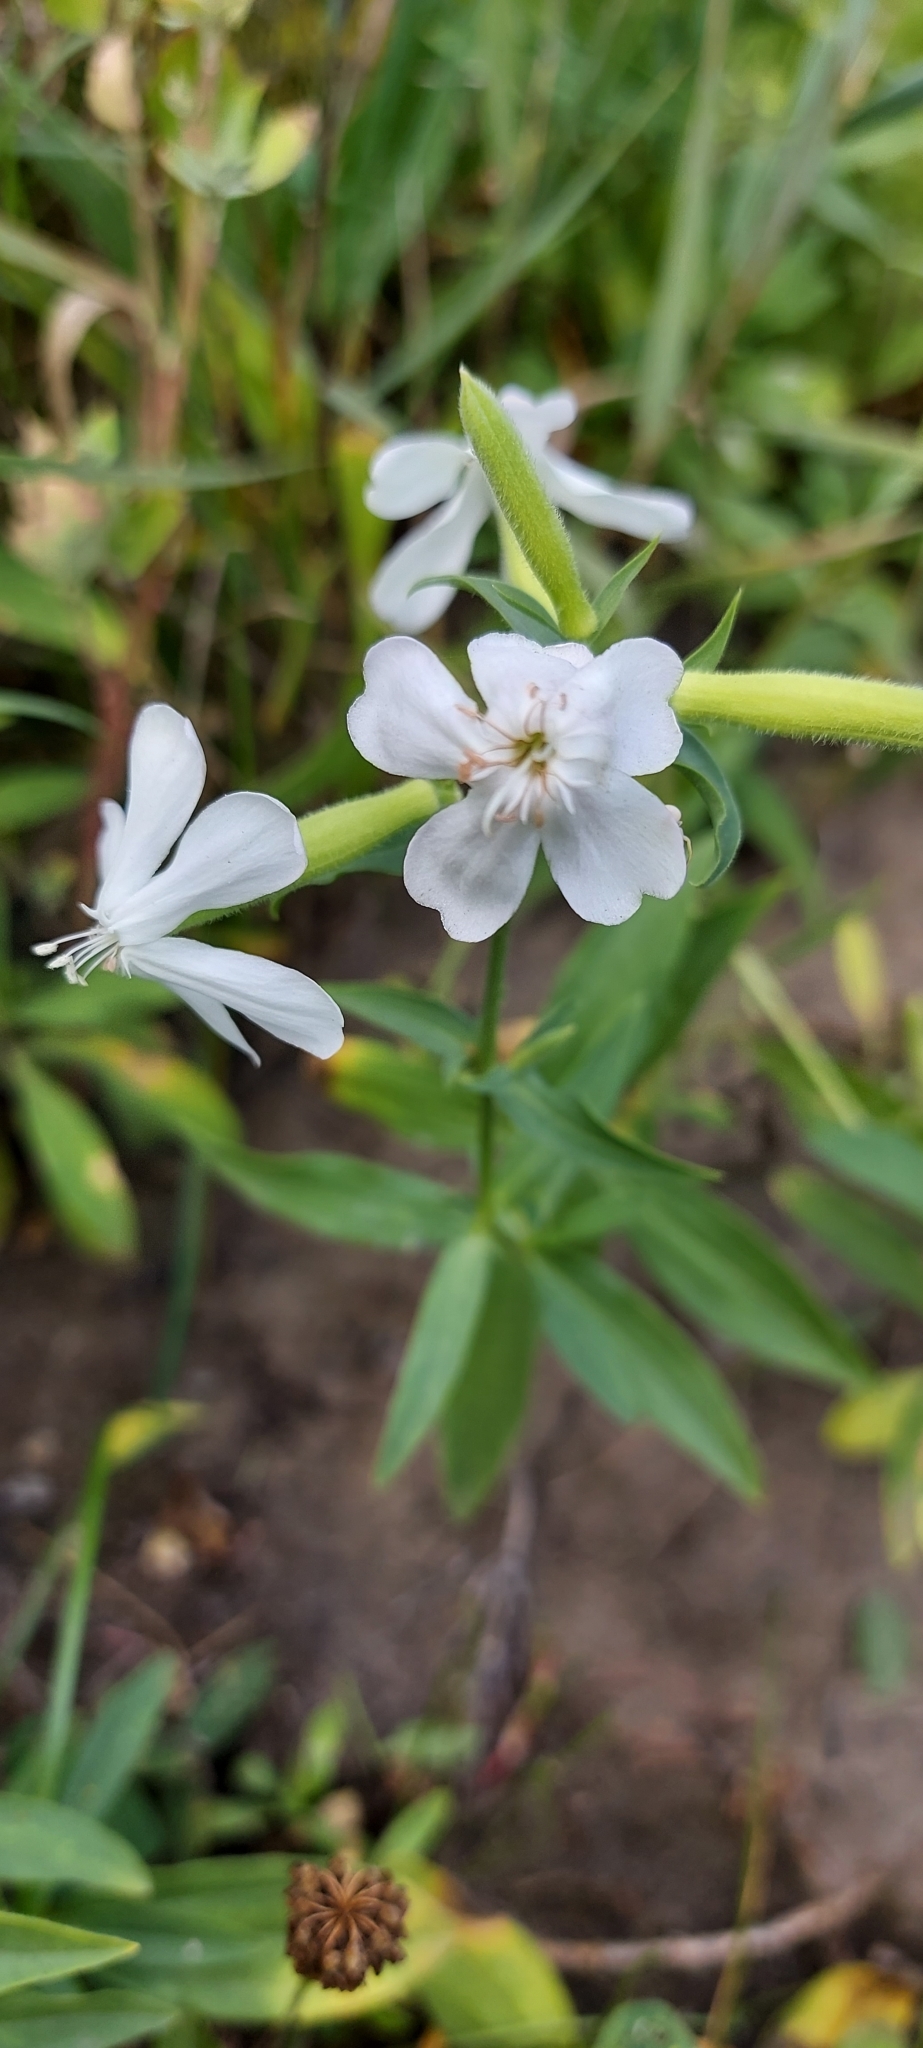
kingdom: Plantae
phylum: Tracheophyta
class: Magnoliopsida
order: Caryophyllales
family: Caryophyllaceae
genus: Saponaria
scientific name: Saponaria officinalis
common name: Soapwort
